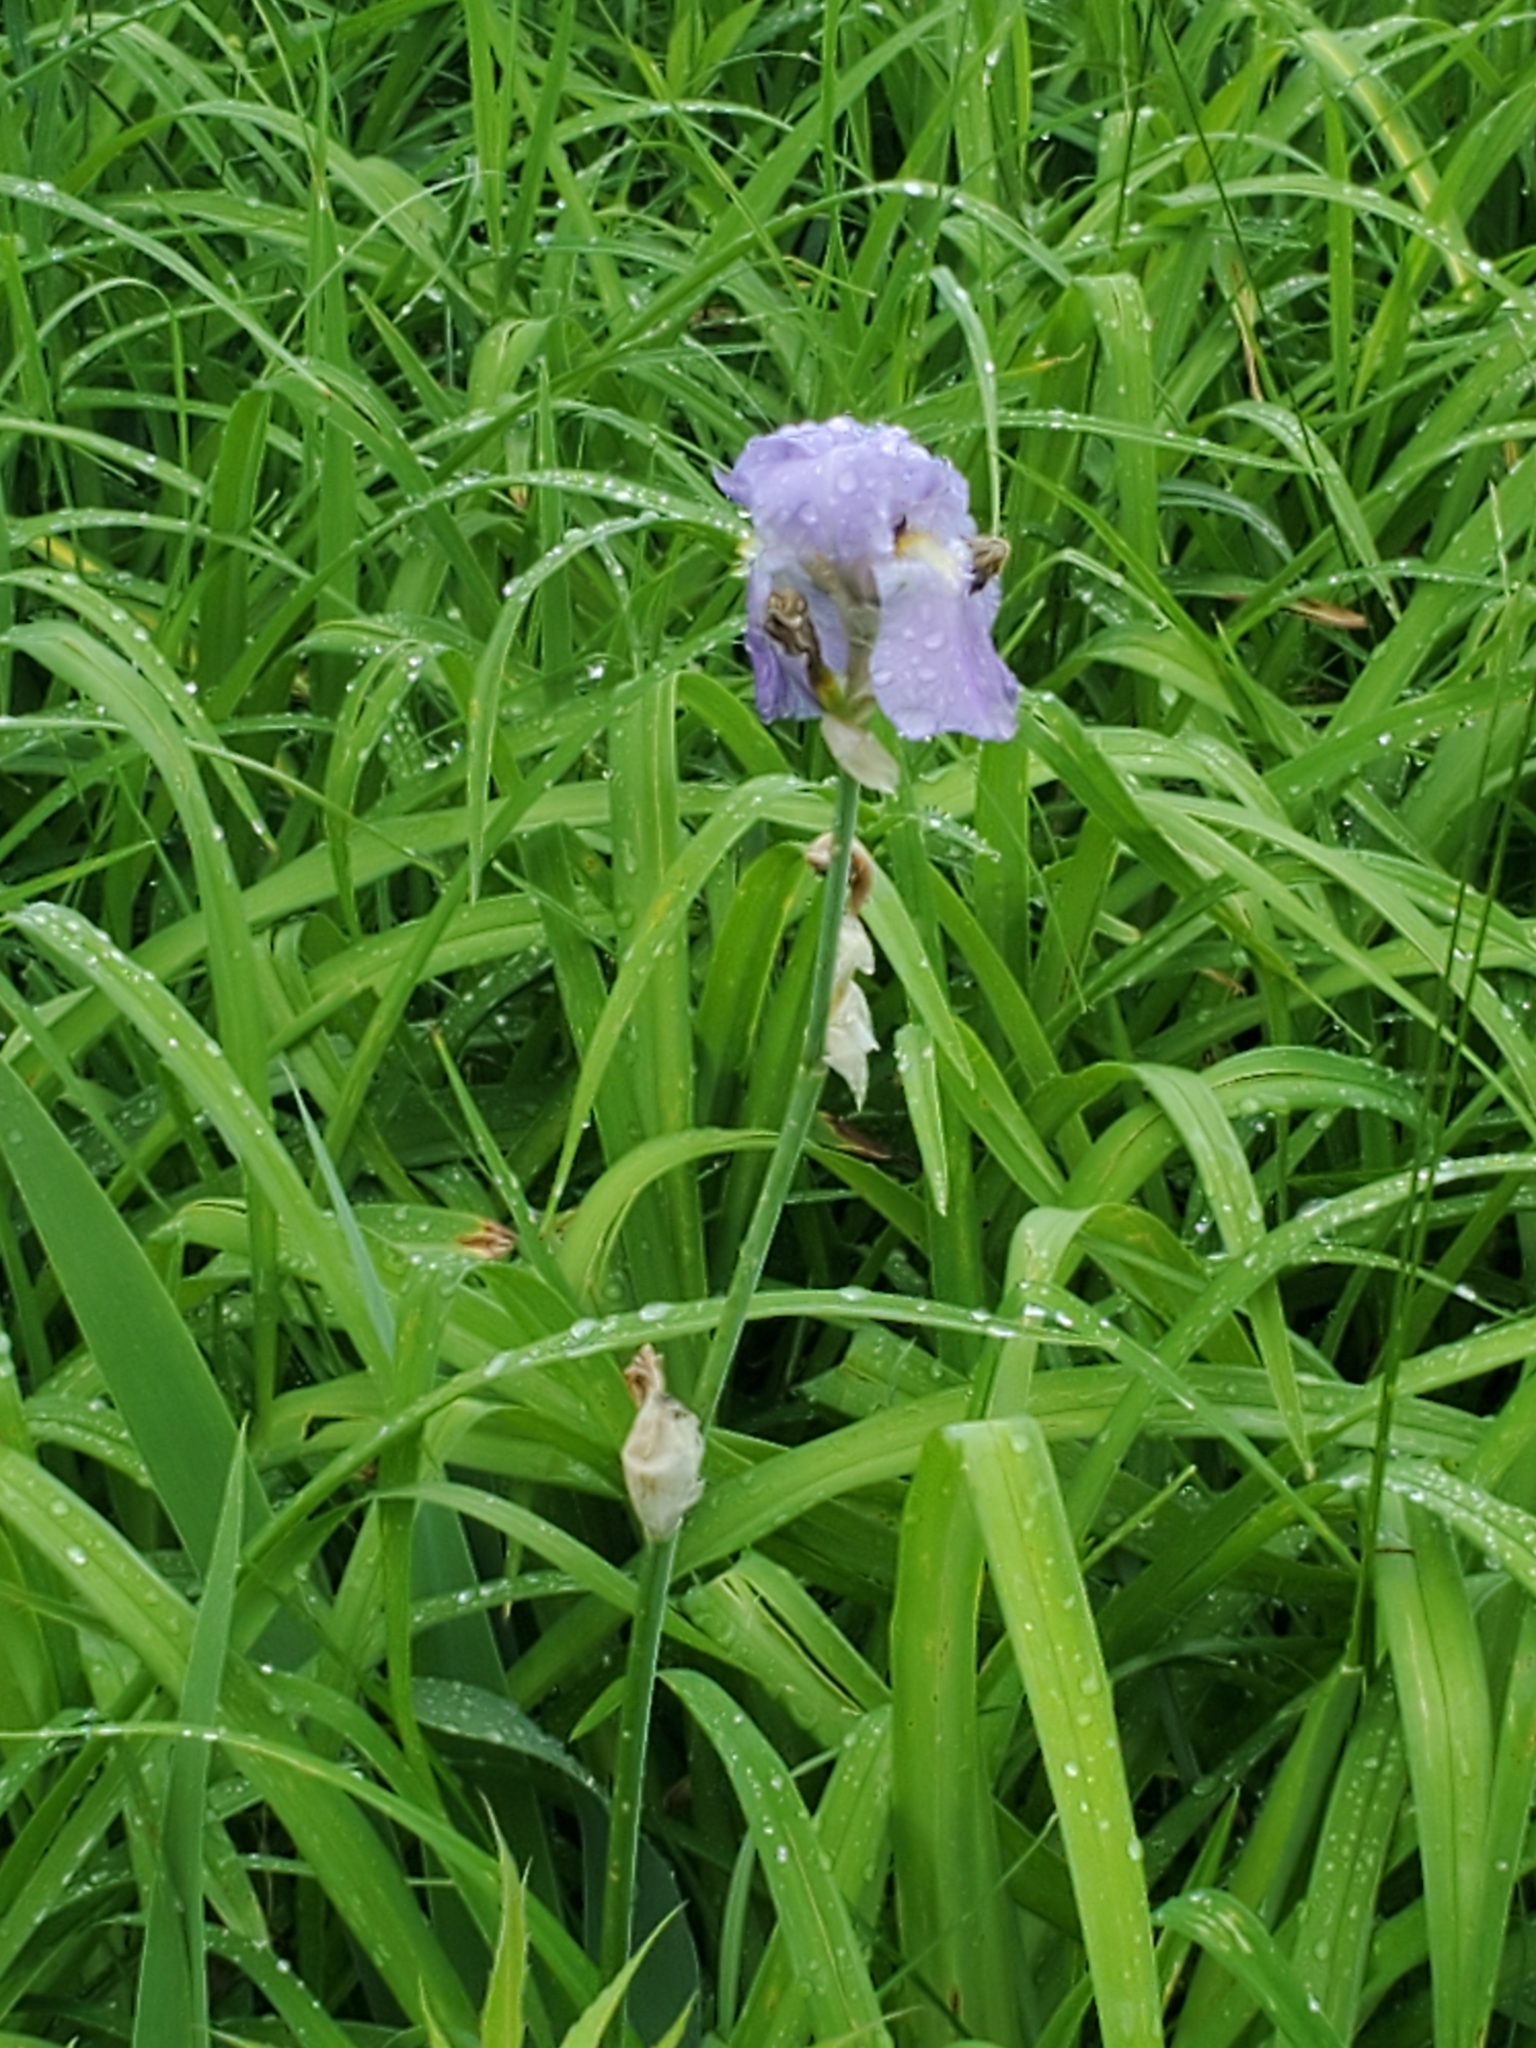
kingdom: Plantae
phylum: Tracheophyta
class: Liliopsida
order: Asparagales
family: Iridaceae
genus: Iris
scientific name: Iris pallida
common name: Sweet iris
